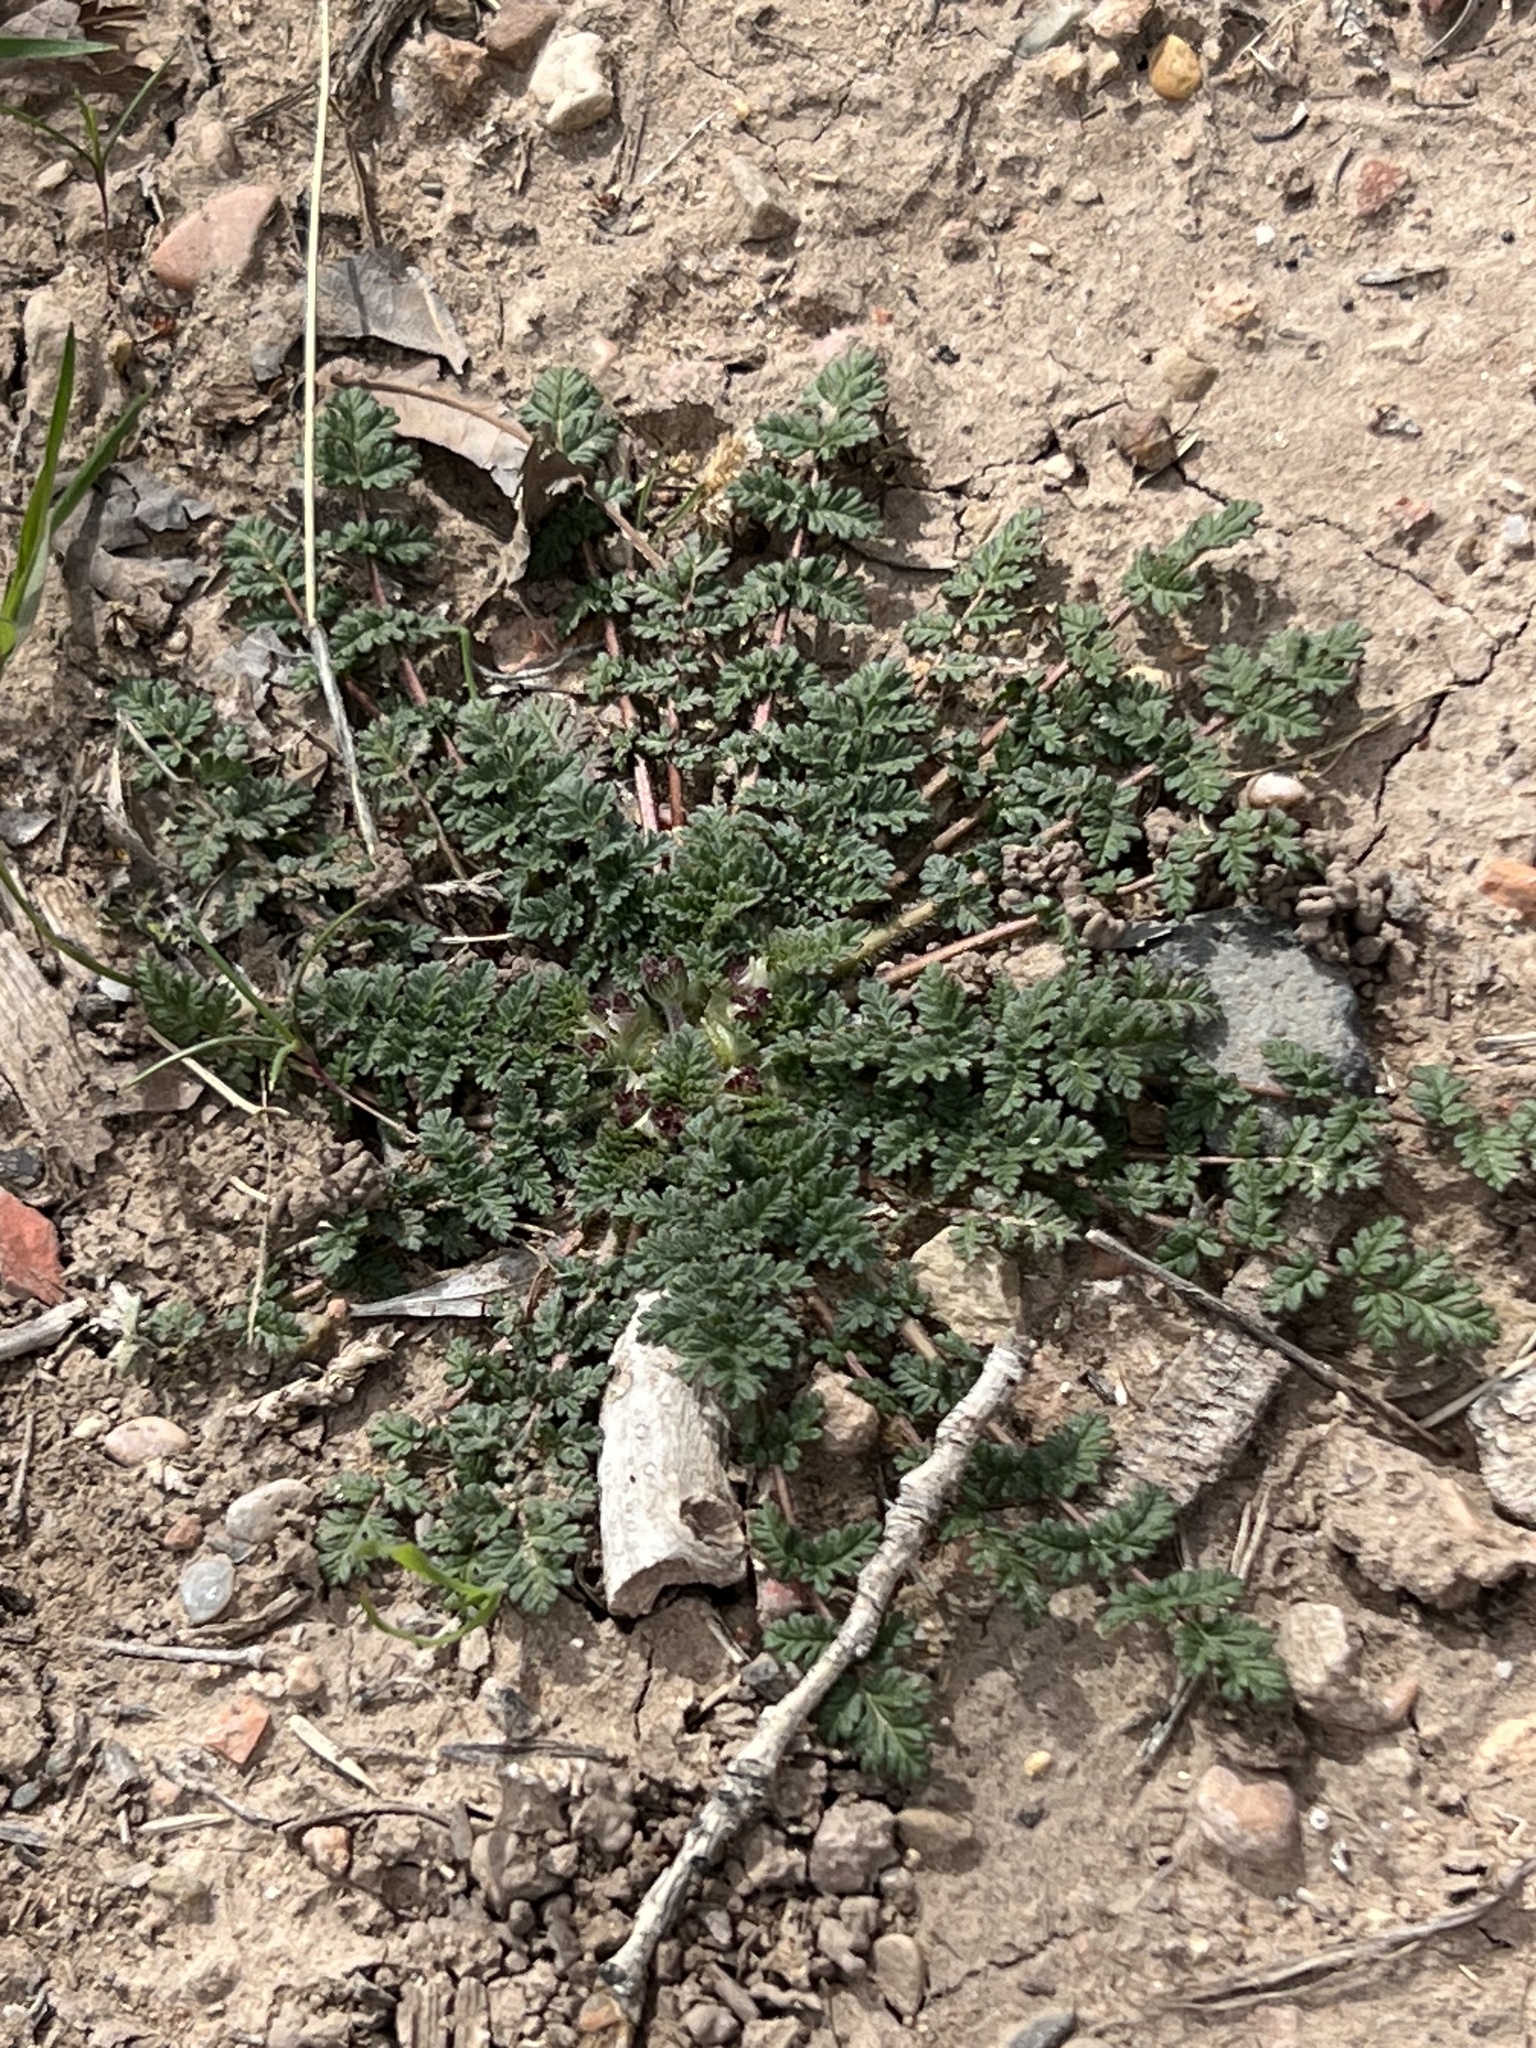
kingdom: Plantae
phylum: Tracheophyta
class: Magnoliopsida
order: Geraniales
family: Geraniaceae
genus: Erodium
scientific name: Erodium cicutarium
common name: Common stork's-bill
